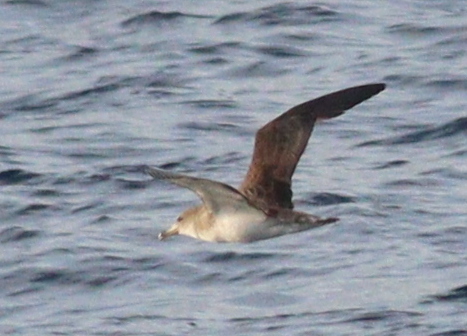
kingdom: Animalia
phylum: Chordata
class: Aves
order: Procellariiformes
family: Procellariidae
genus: Calonectris
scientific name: Calonectris diomedea
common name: Cory's shearwater
